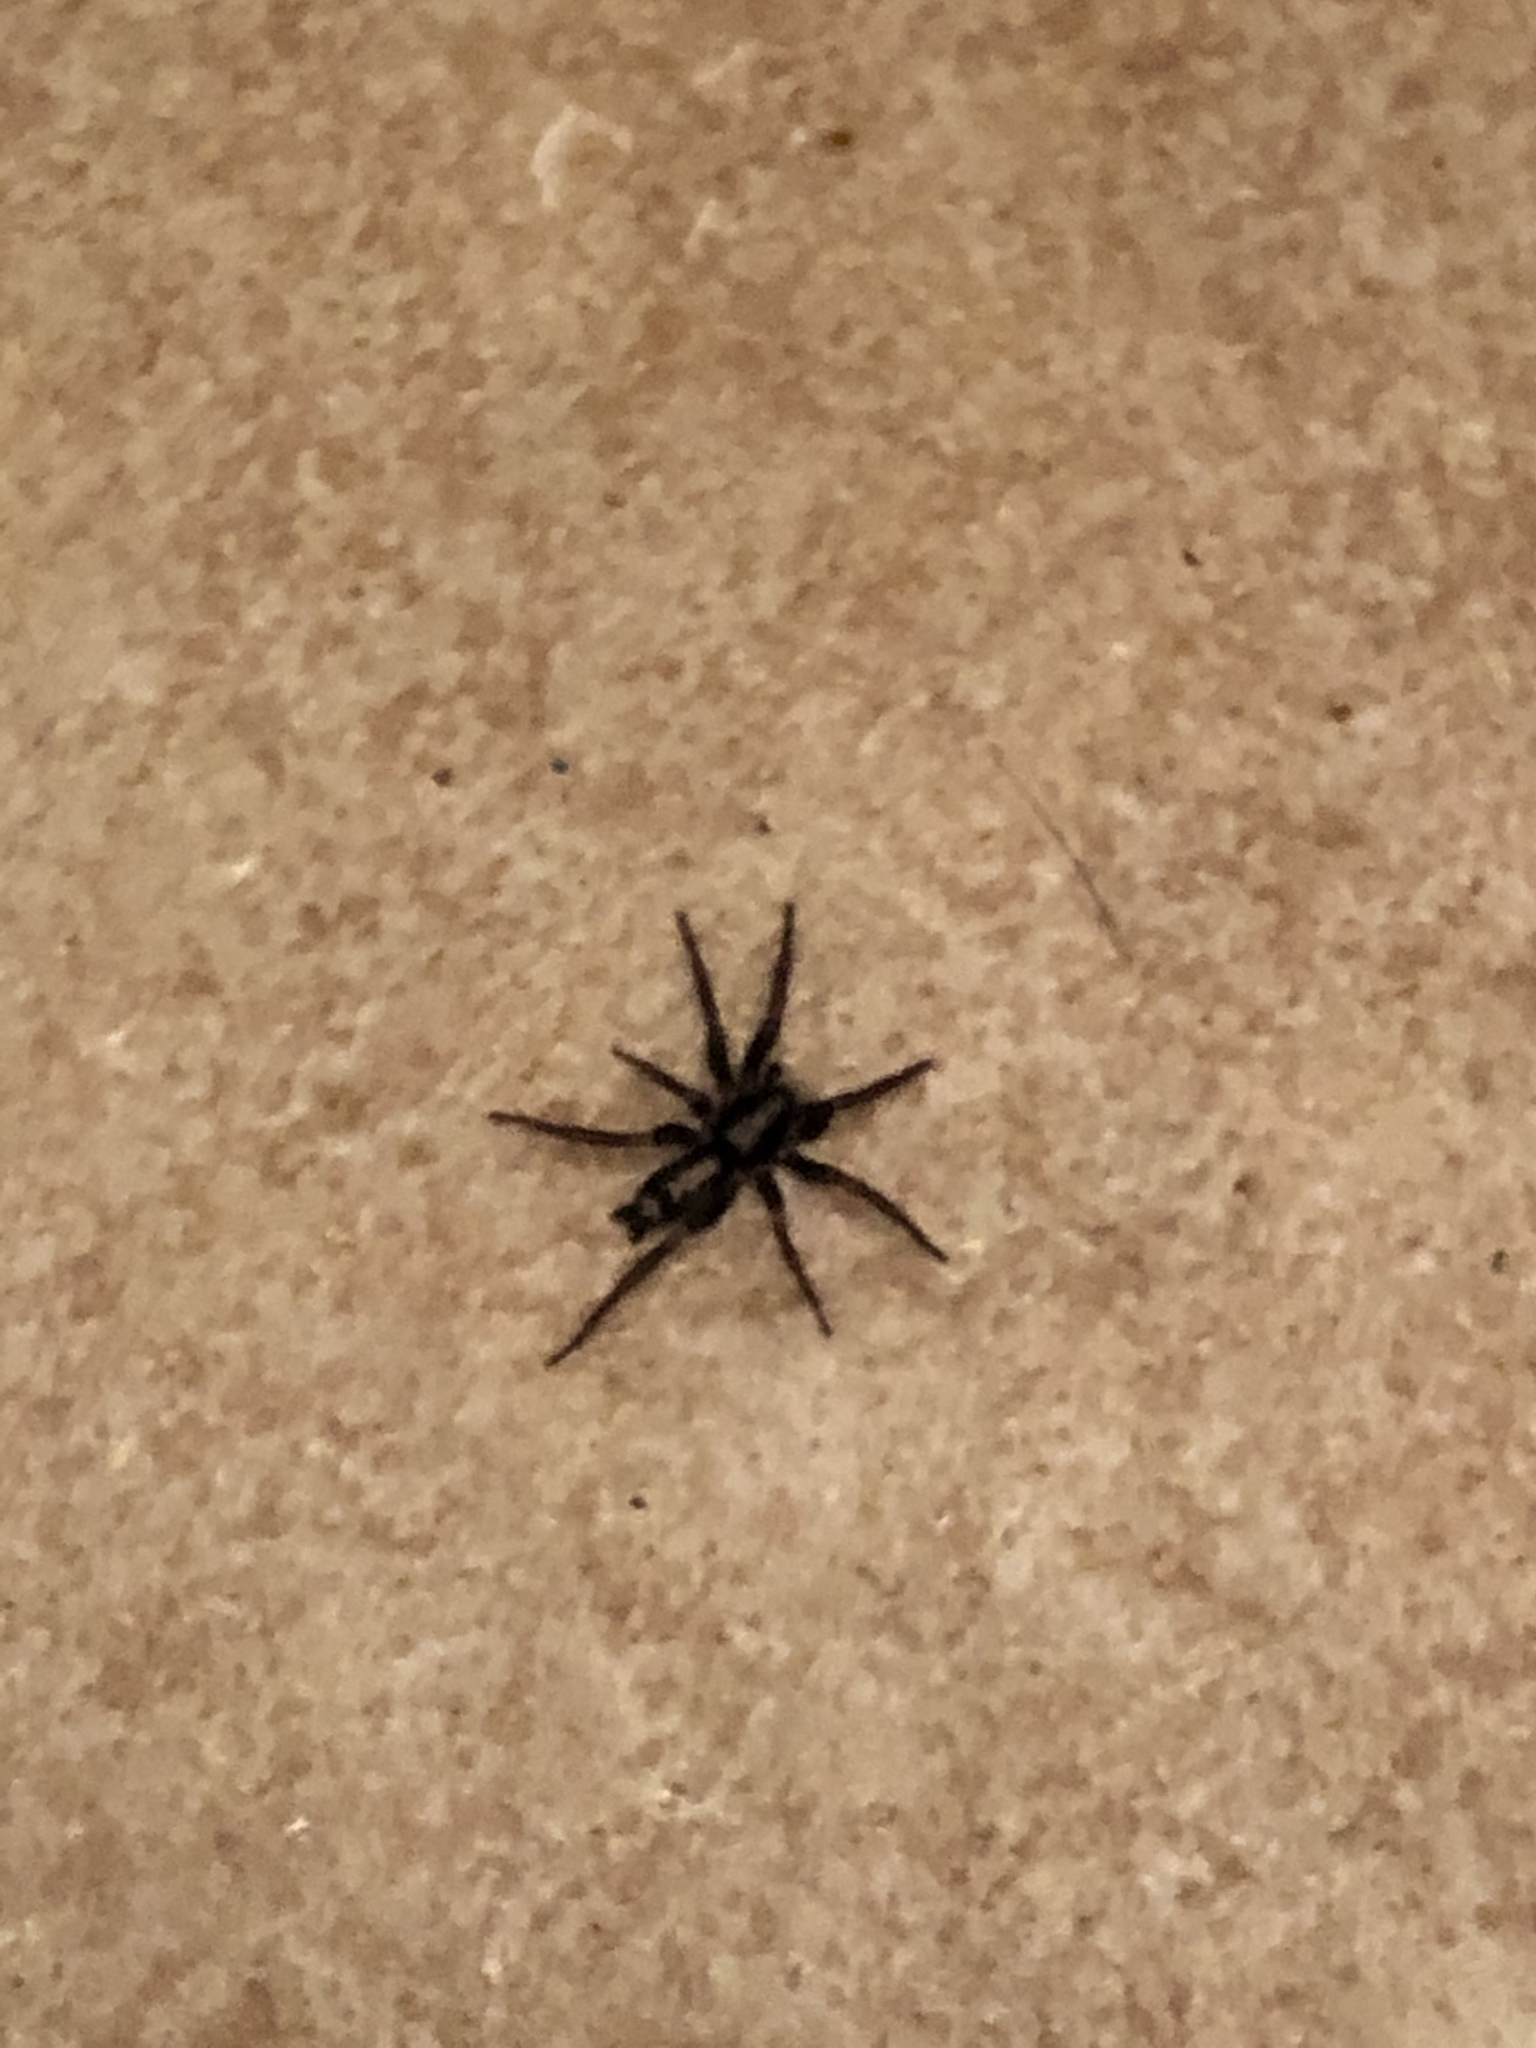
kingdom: Animalia
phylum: Arthropoda
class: Arachnida
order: Araneae
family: Gnaphosidae
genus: Herpyllus
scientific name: Herpyllus ecclesiasticus
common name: Eastern parson spider
